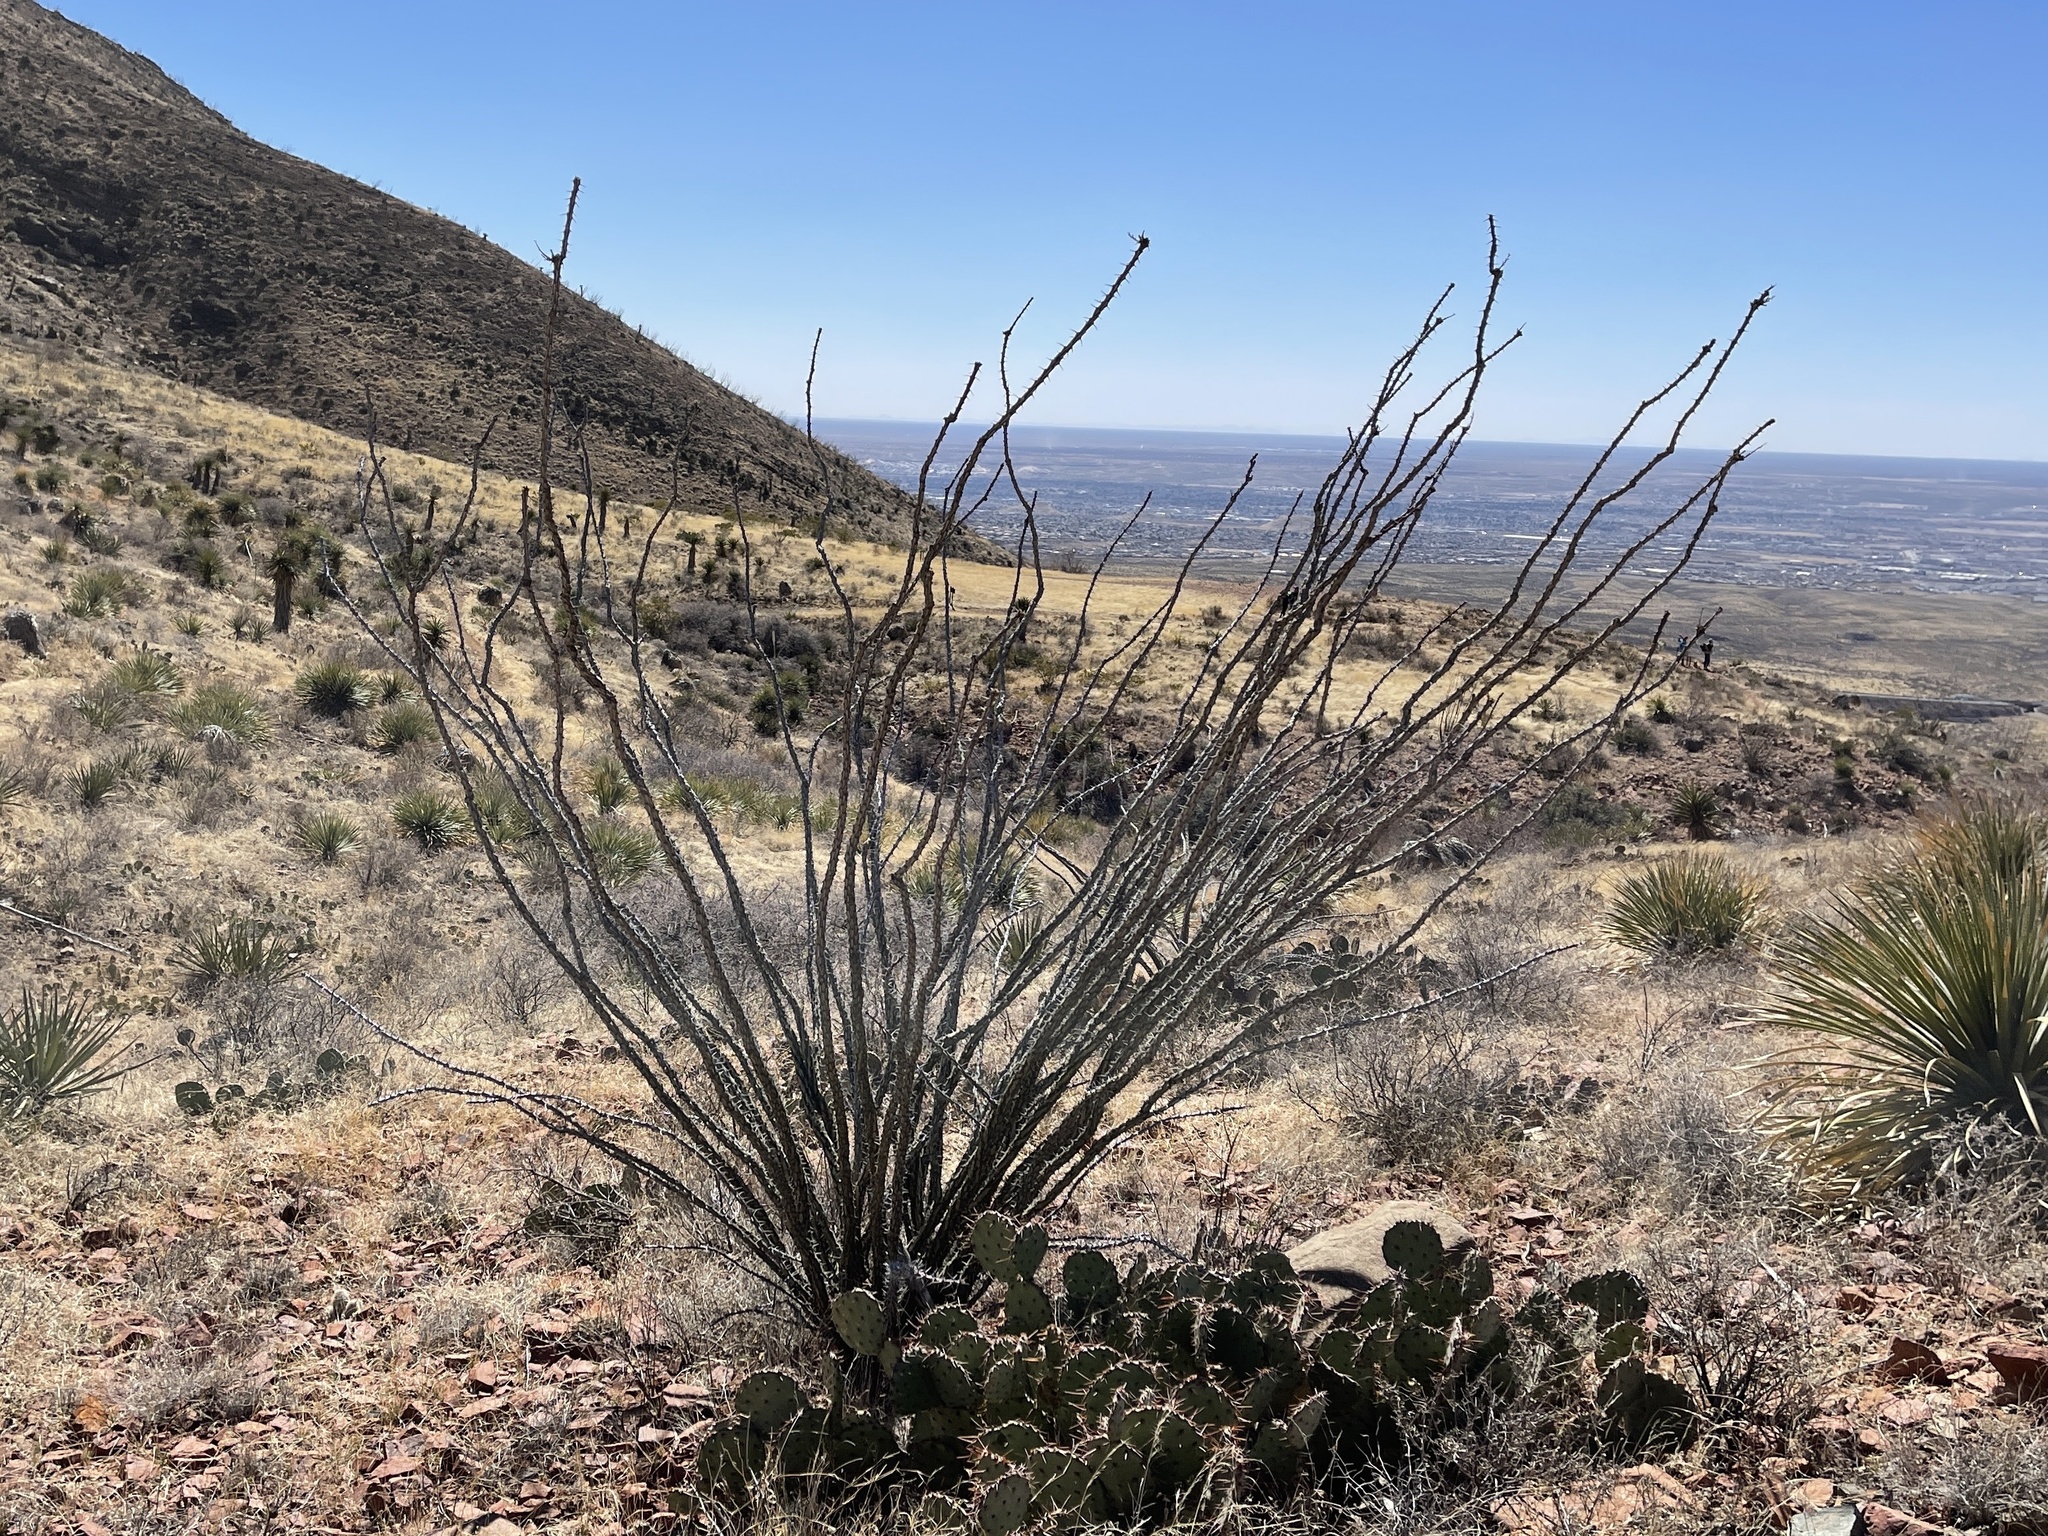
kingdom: Plantae
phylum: Tracheophyta
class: Magnoliopsida
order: Ericales
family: Fouquieriaceae
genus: Fouquieria
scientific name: Fouquieria splendens
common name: Vine-cactus
